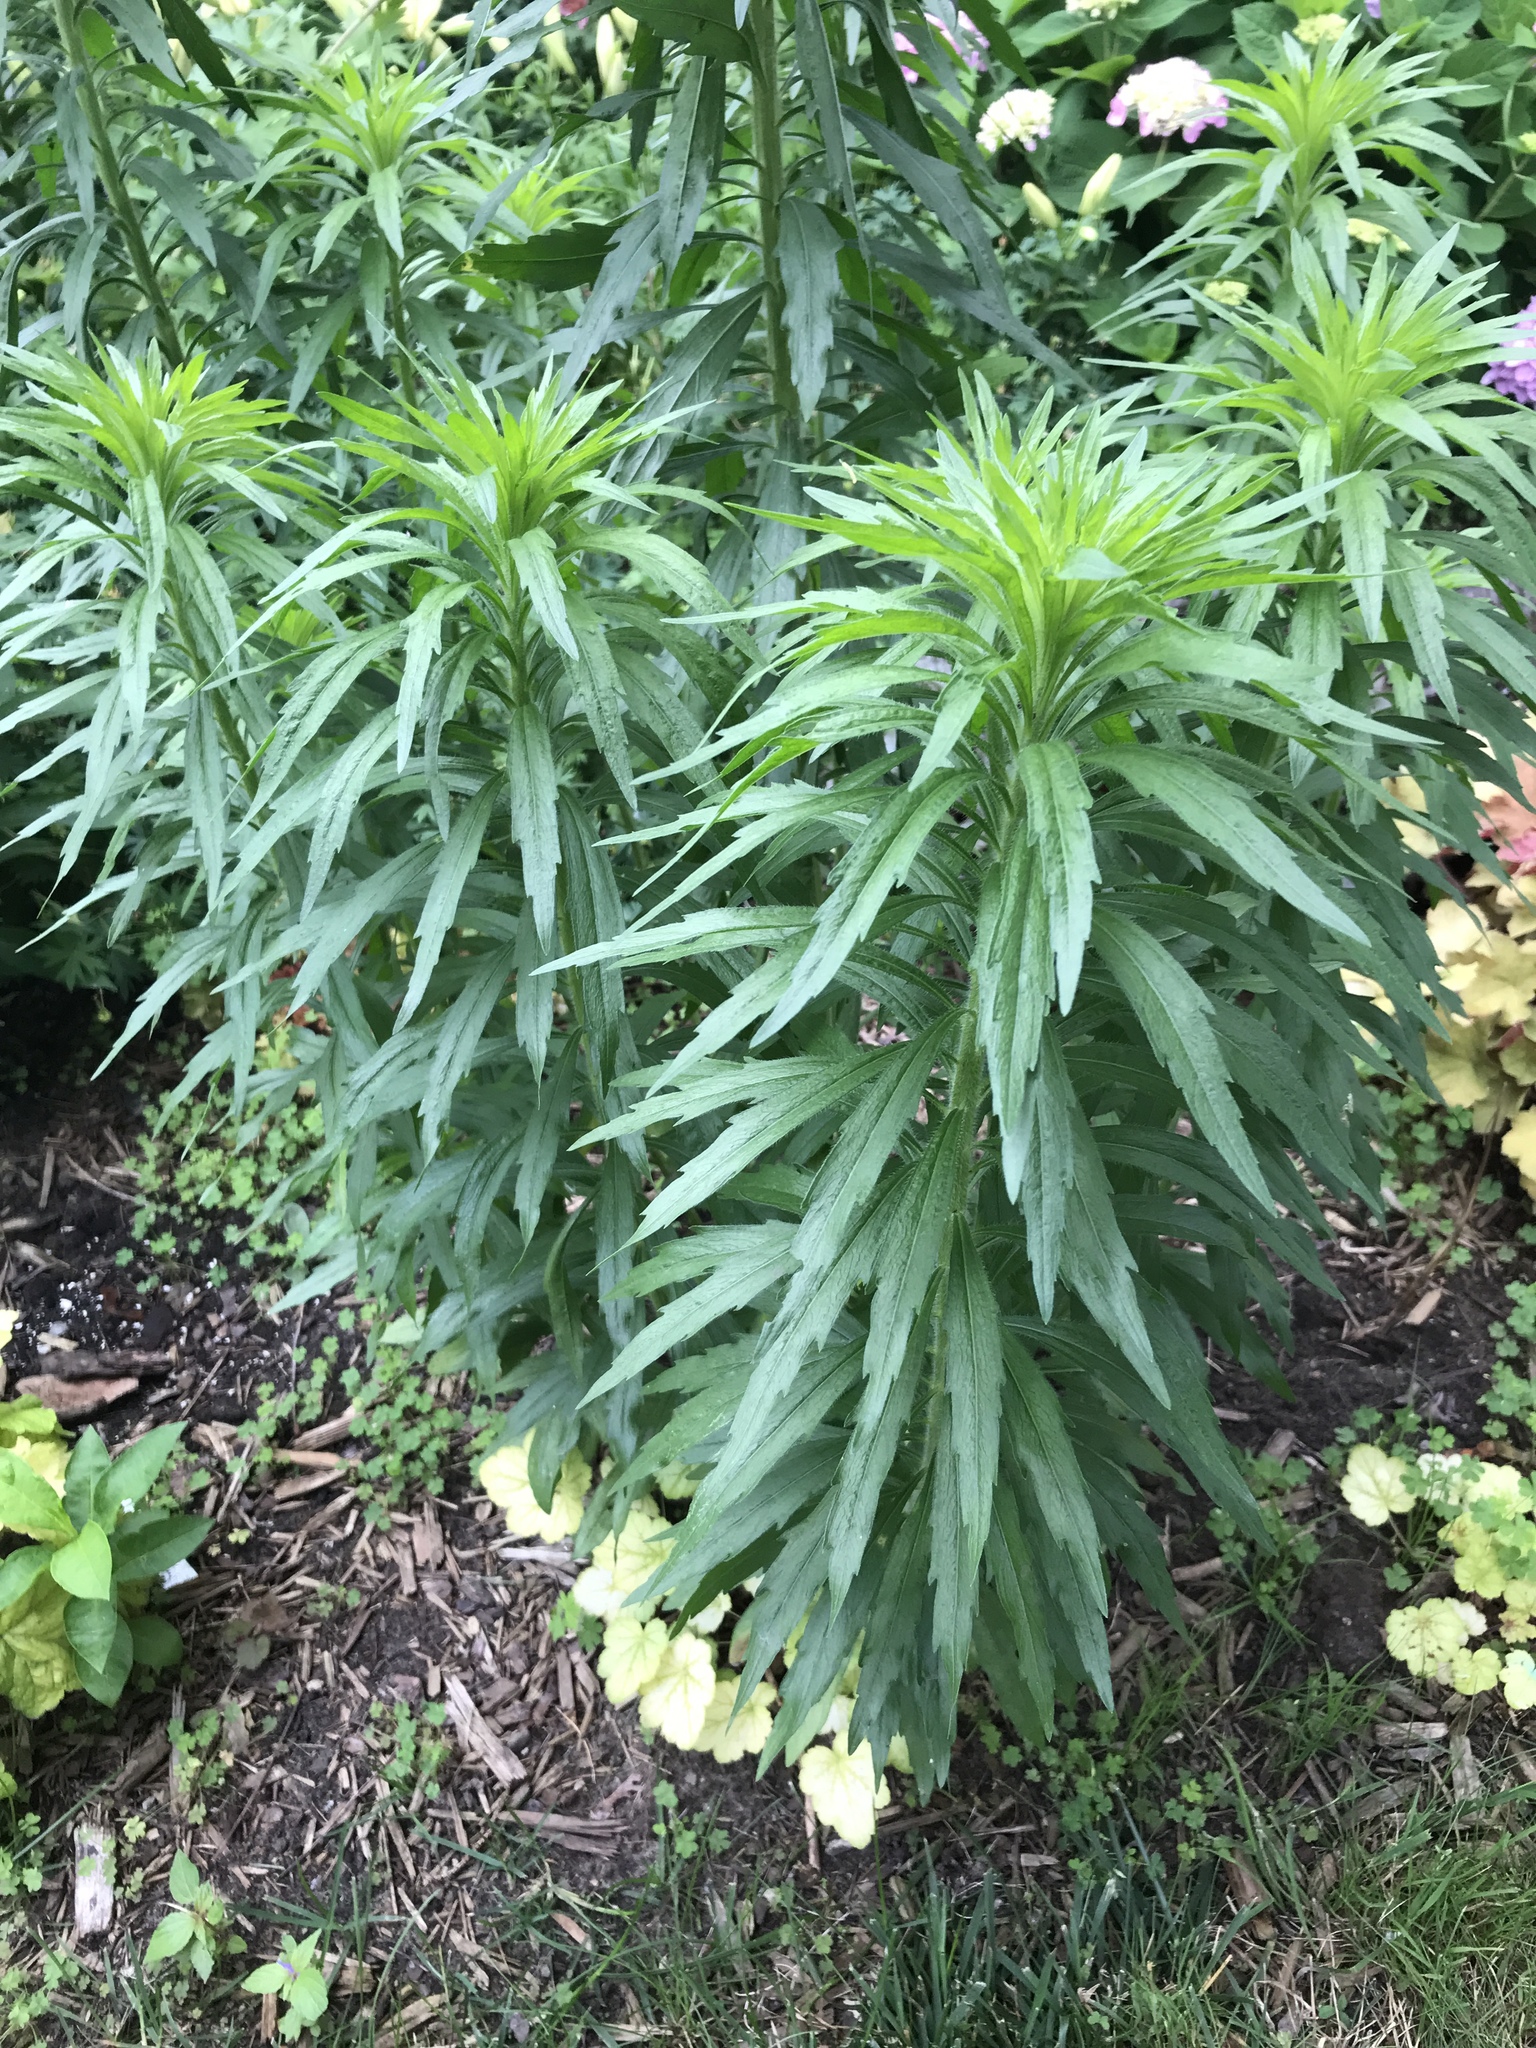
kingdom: Plantae
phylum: Tracheophyta
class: Magnoliopsida
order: Asterales
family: Asteraceae
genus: Erigeron
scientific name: Erigeron canadensis
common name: Canadian fleabane
